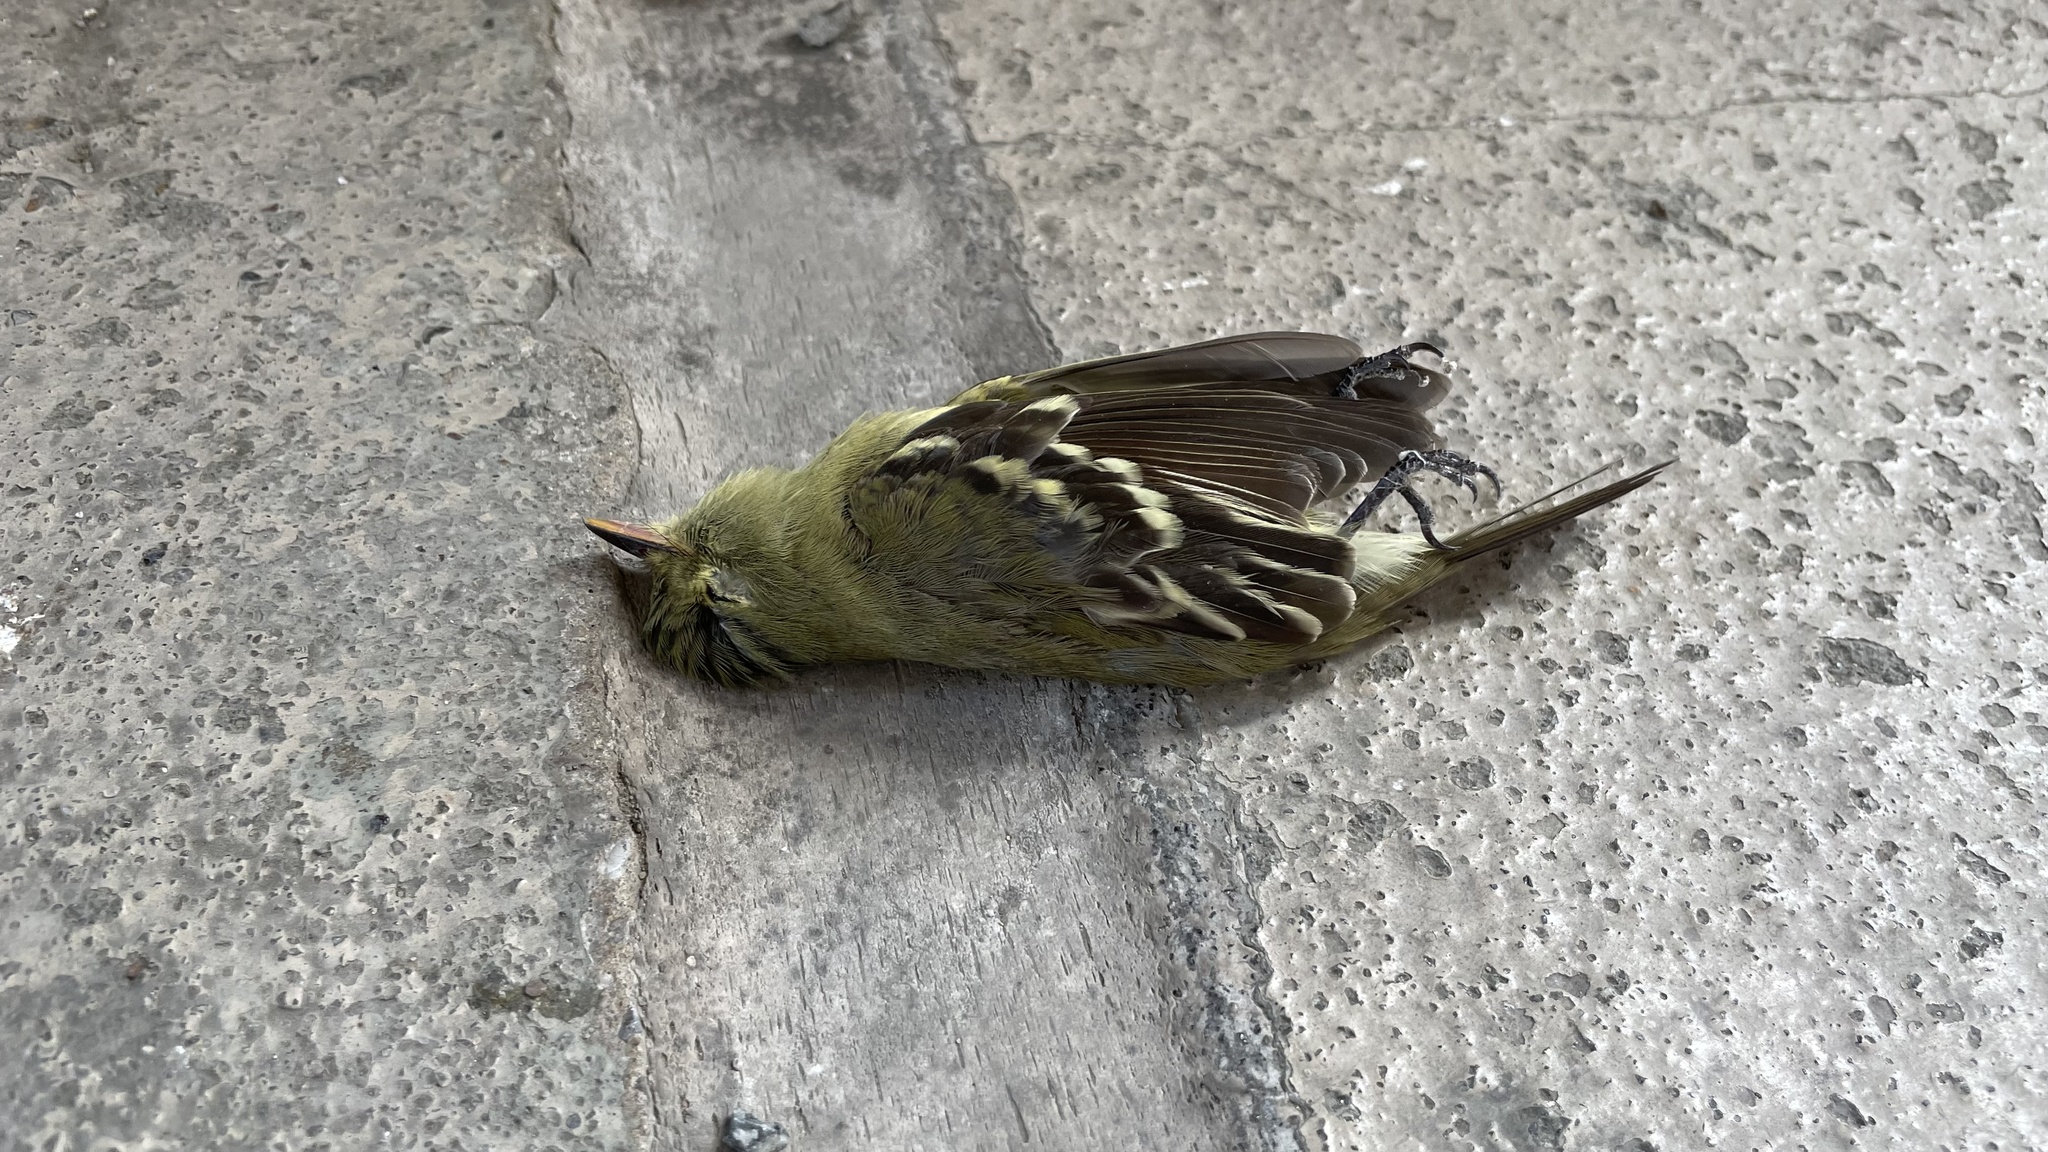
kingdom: Animalia
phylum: Chordata
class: Aves
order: Passeriformes
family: Tyrannidae
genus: Empidonax
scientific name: Empidonax traillii
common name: Willow flycatcher
